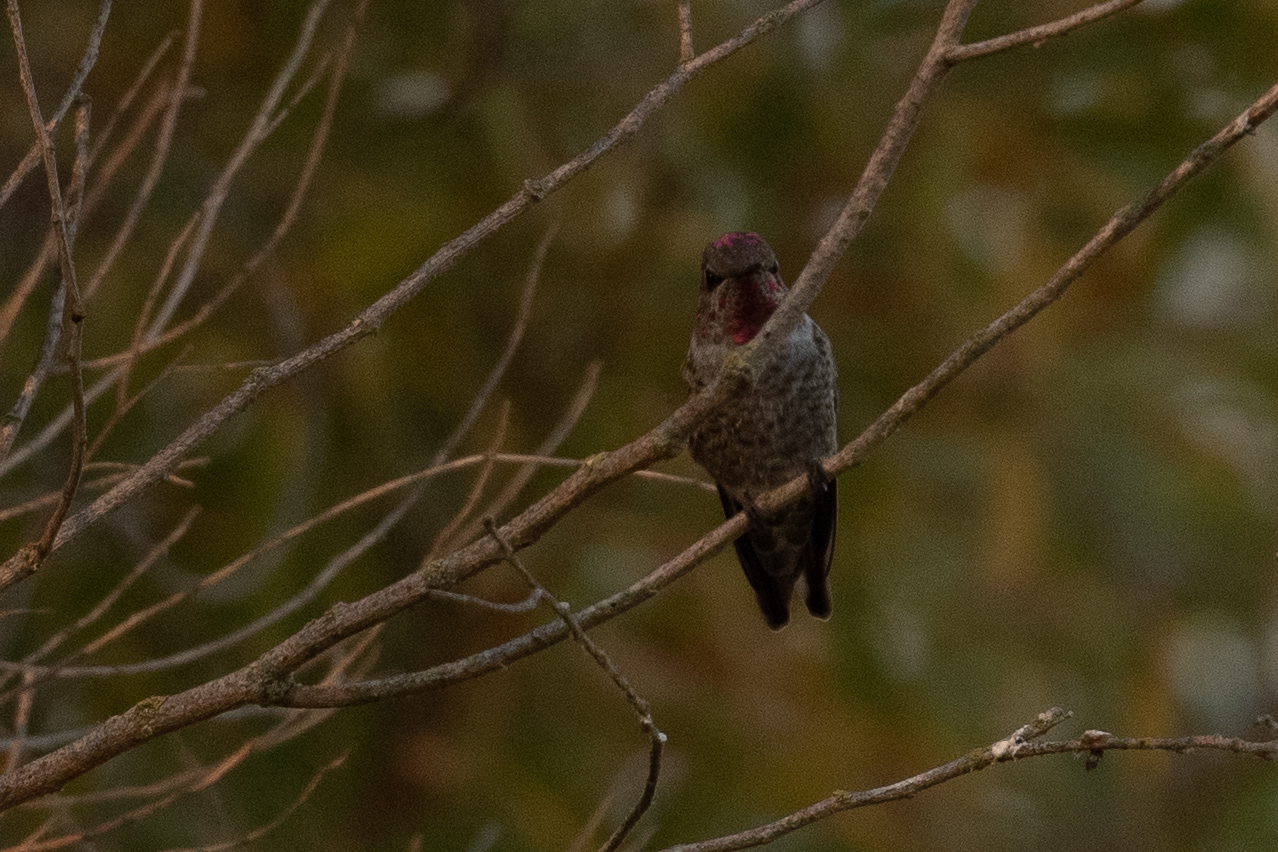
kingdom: Animalia
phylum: Chordata
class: Aves
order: Apodiformes
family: Trochilidae
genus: Calypte
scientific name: Calypte anna
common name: Anna's hummingbird
